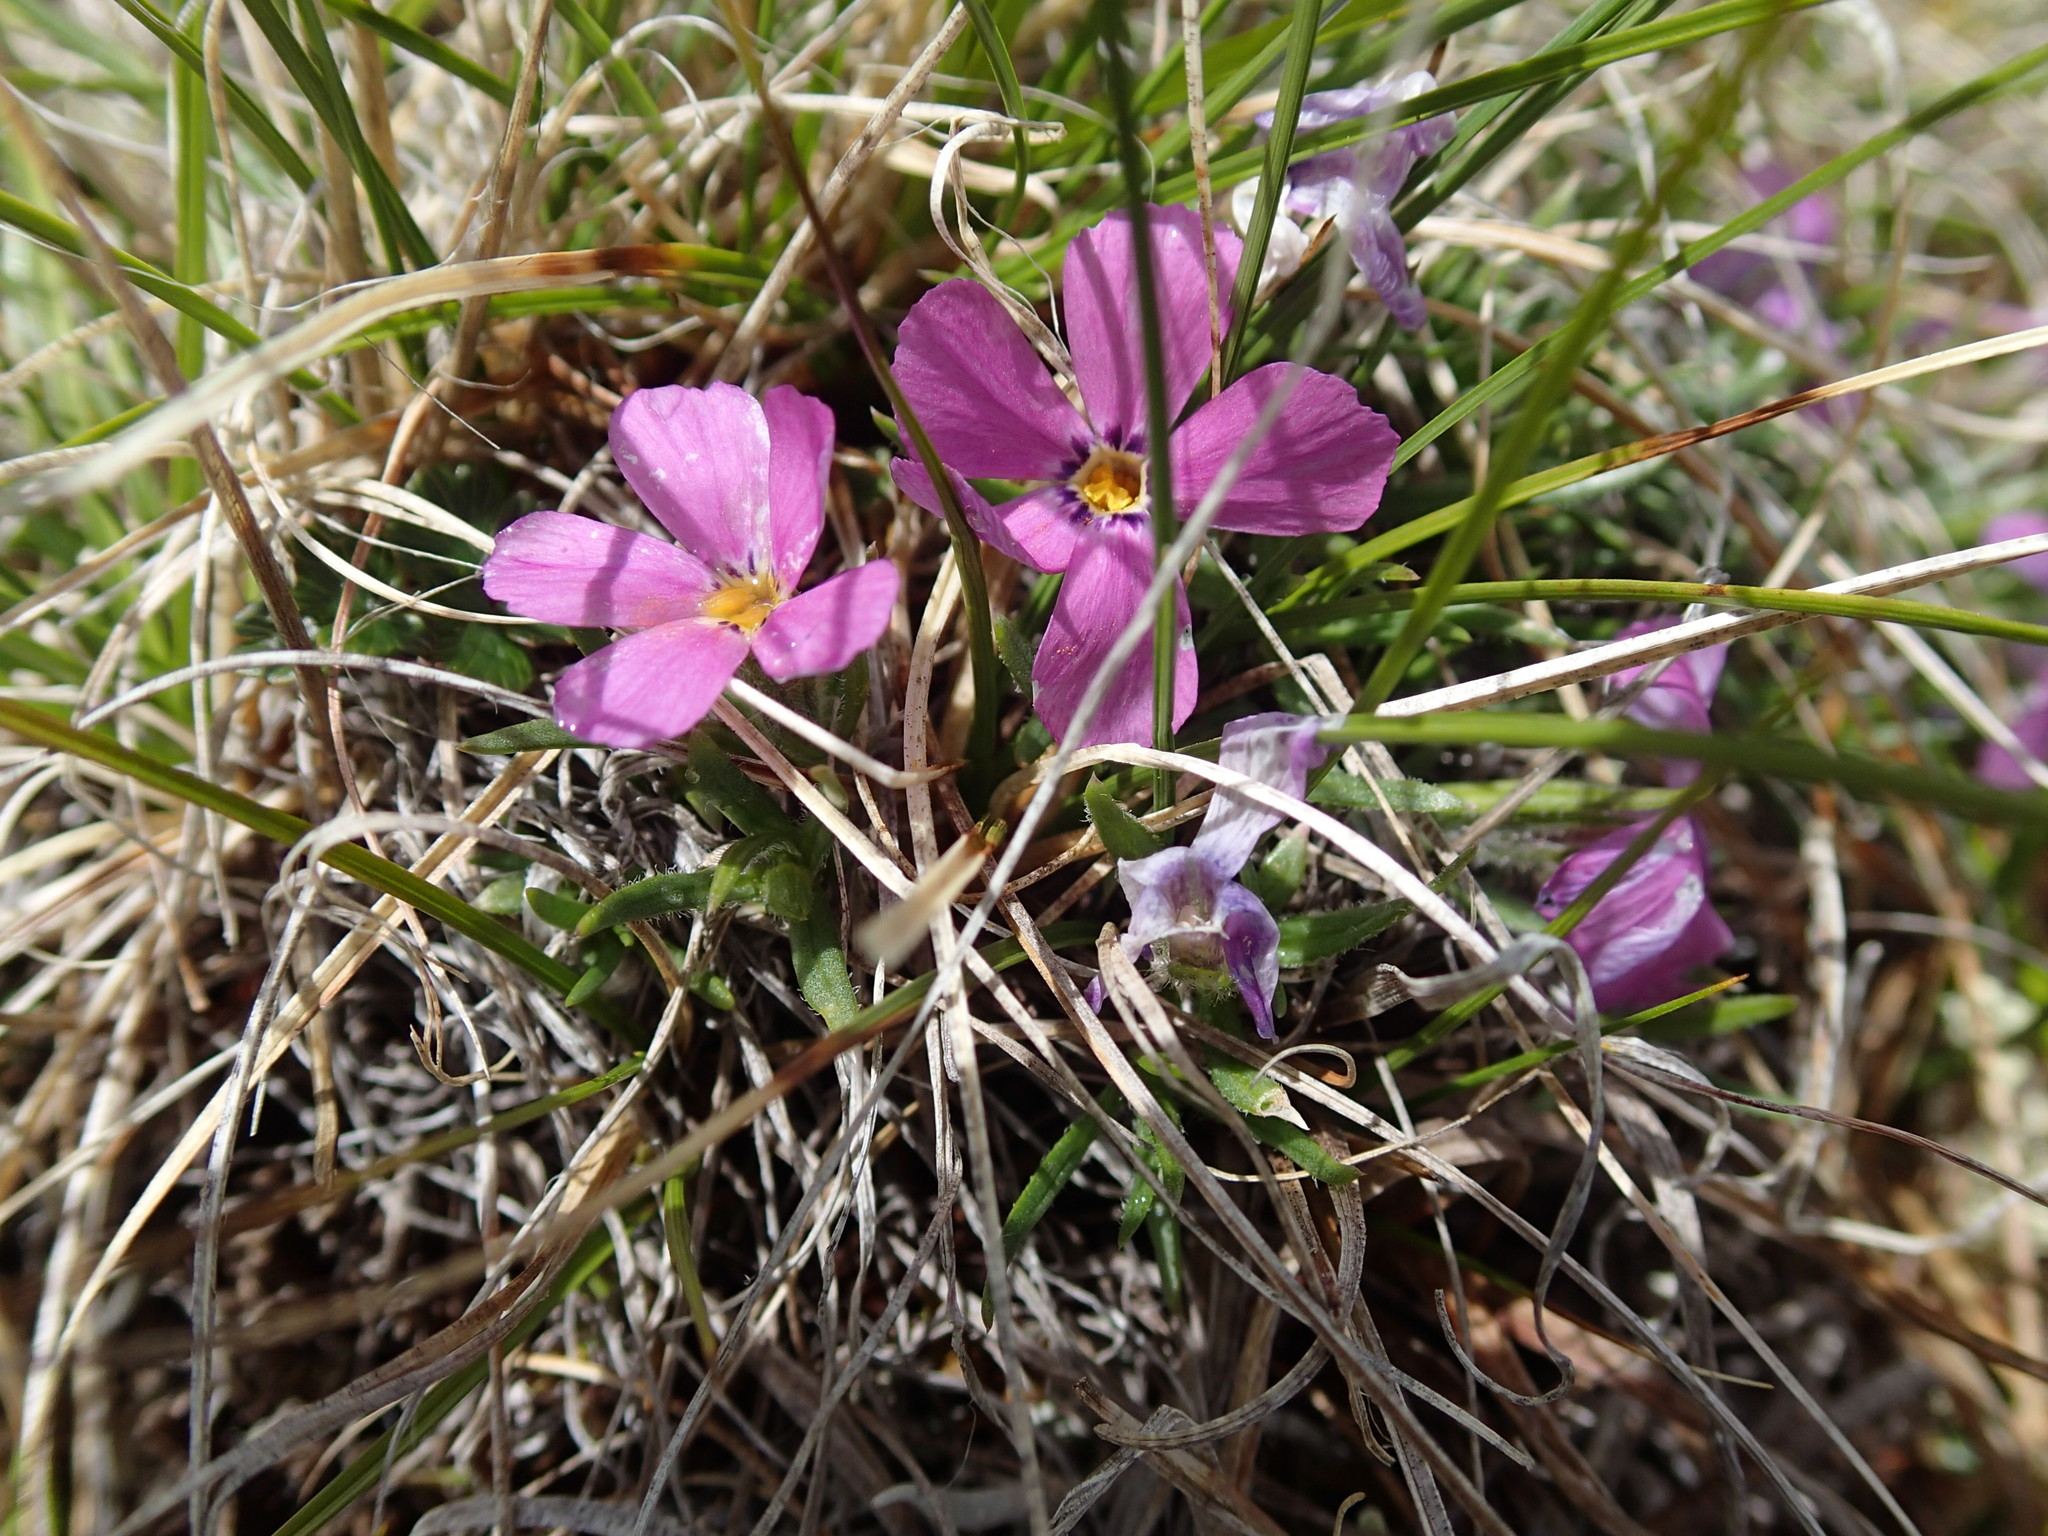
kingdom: Plantae
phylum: Tracheophyta
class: Magnoliopsida
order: Ericales
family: Polemoniaceae
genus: Phlox
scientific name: Phlox richardsonii
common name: Richardson's phlox
